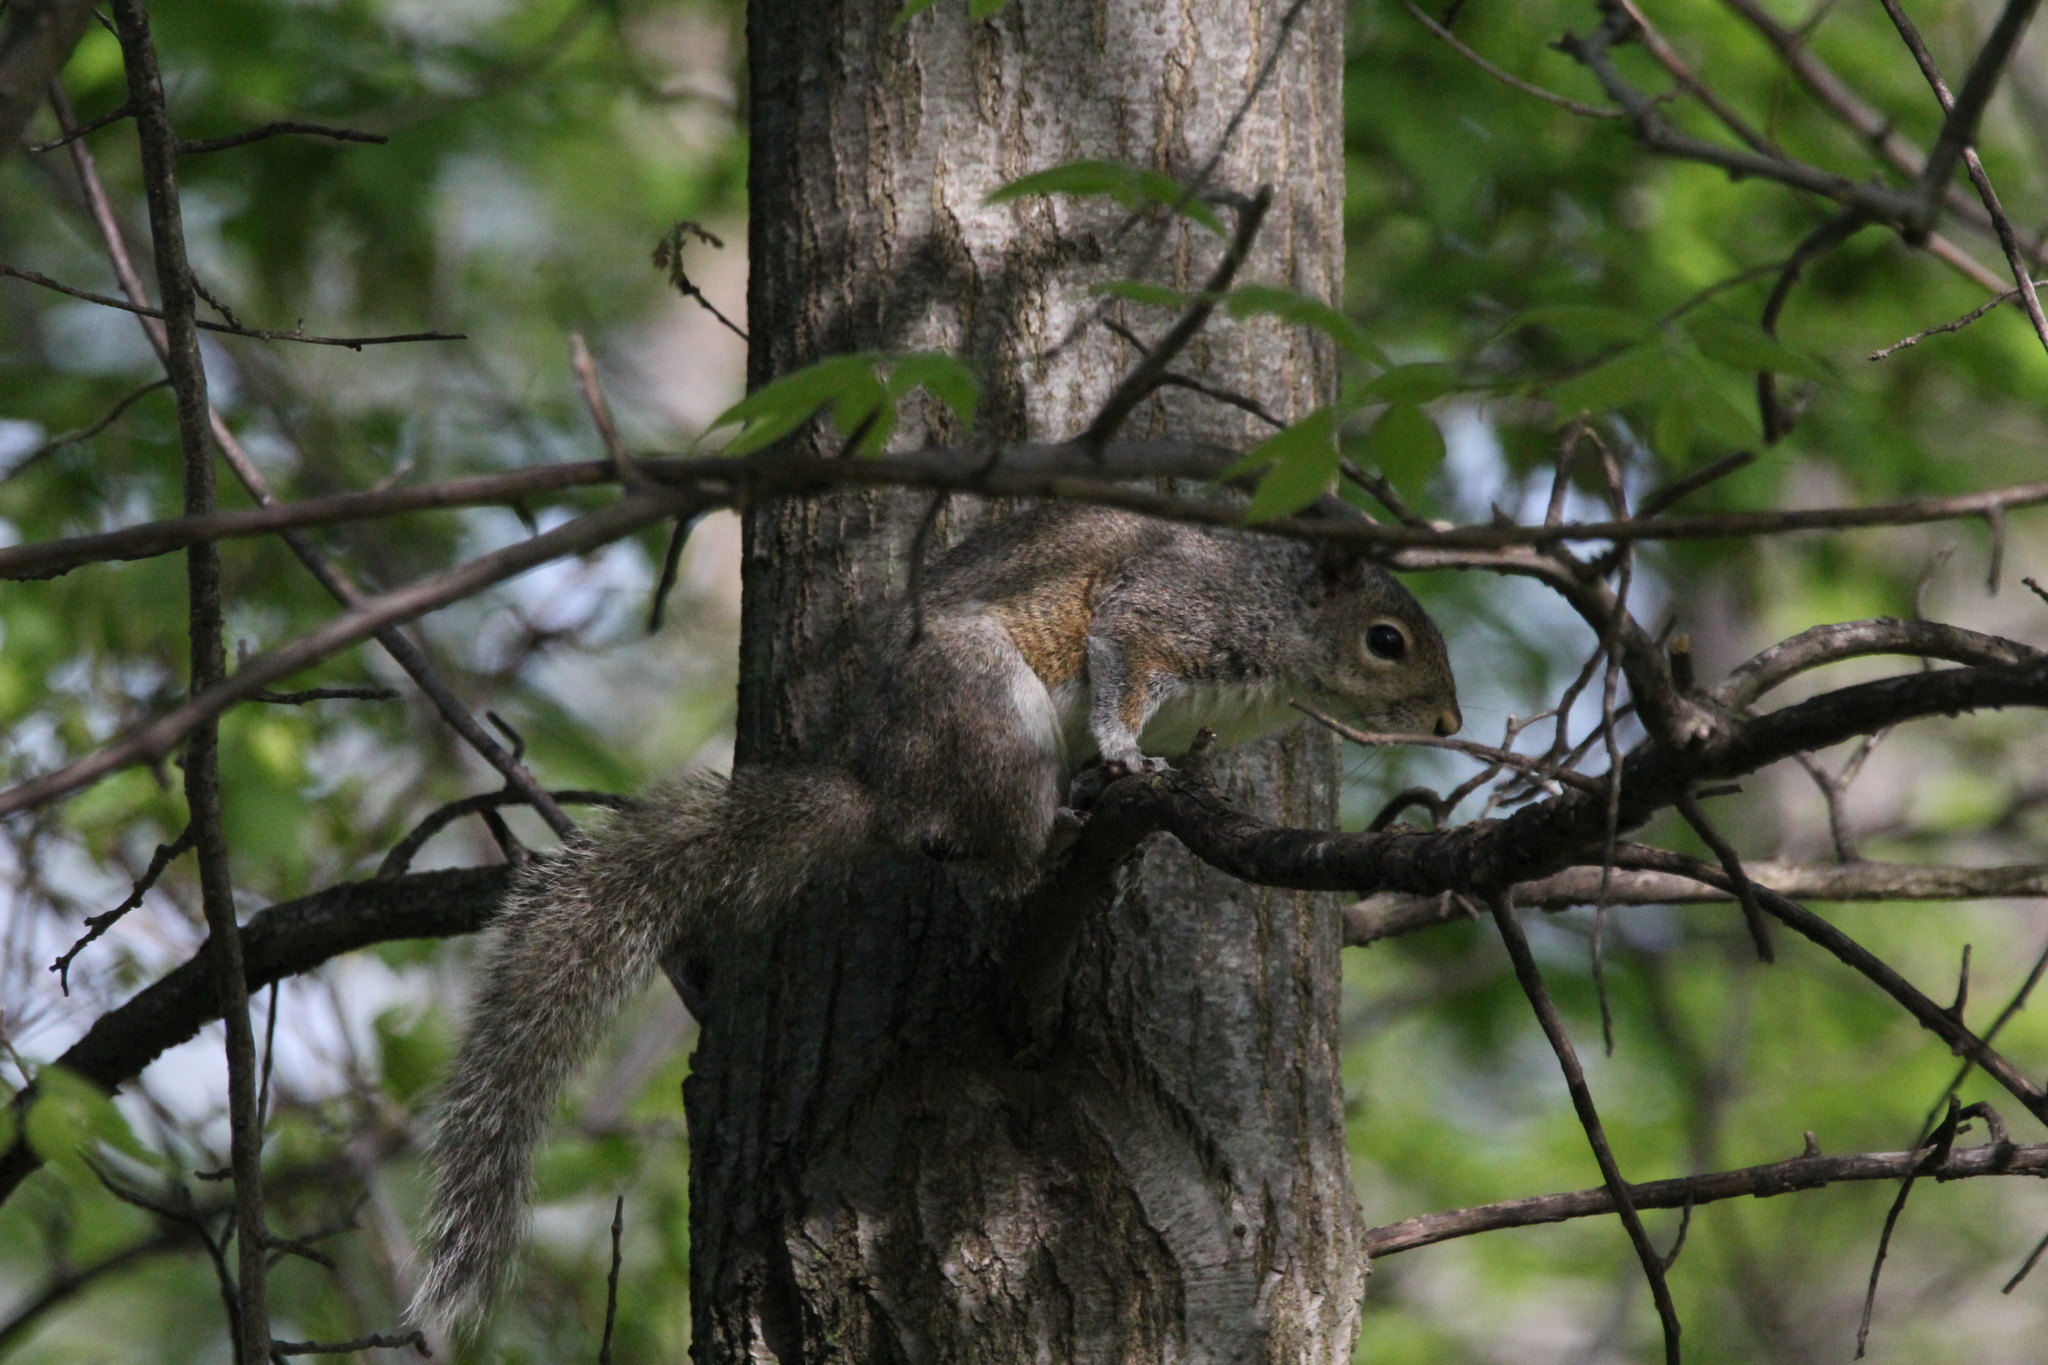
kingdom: Animalia
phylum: Chordata
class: Mammalia
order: Rodentia
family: Sciuridae
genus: Sciurus
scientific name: Sciurus carolinensis
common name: Eastern gray squirrel
